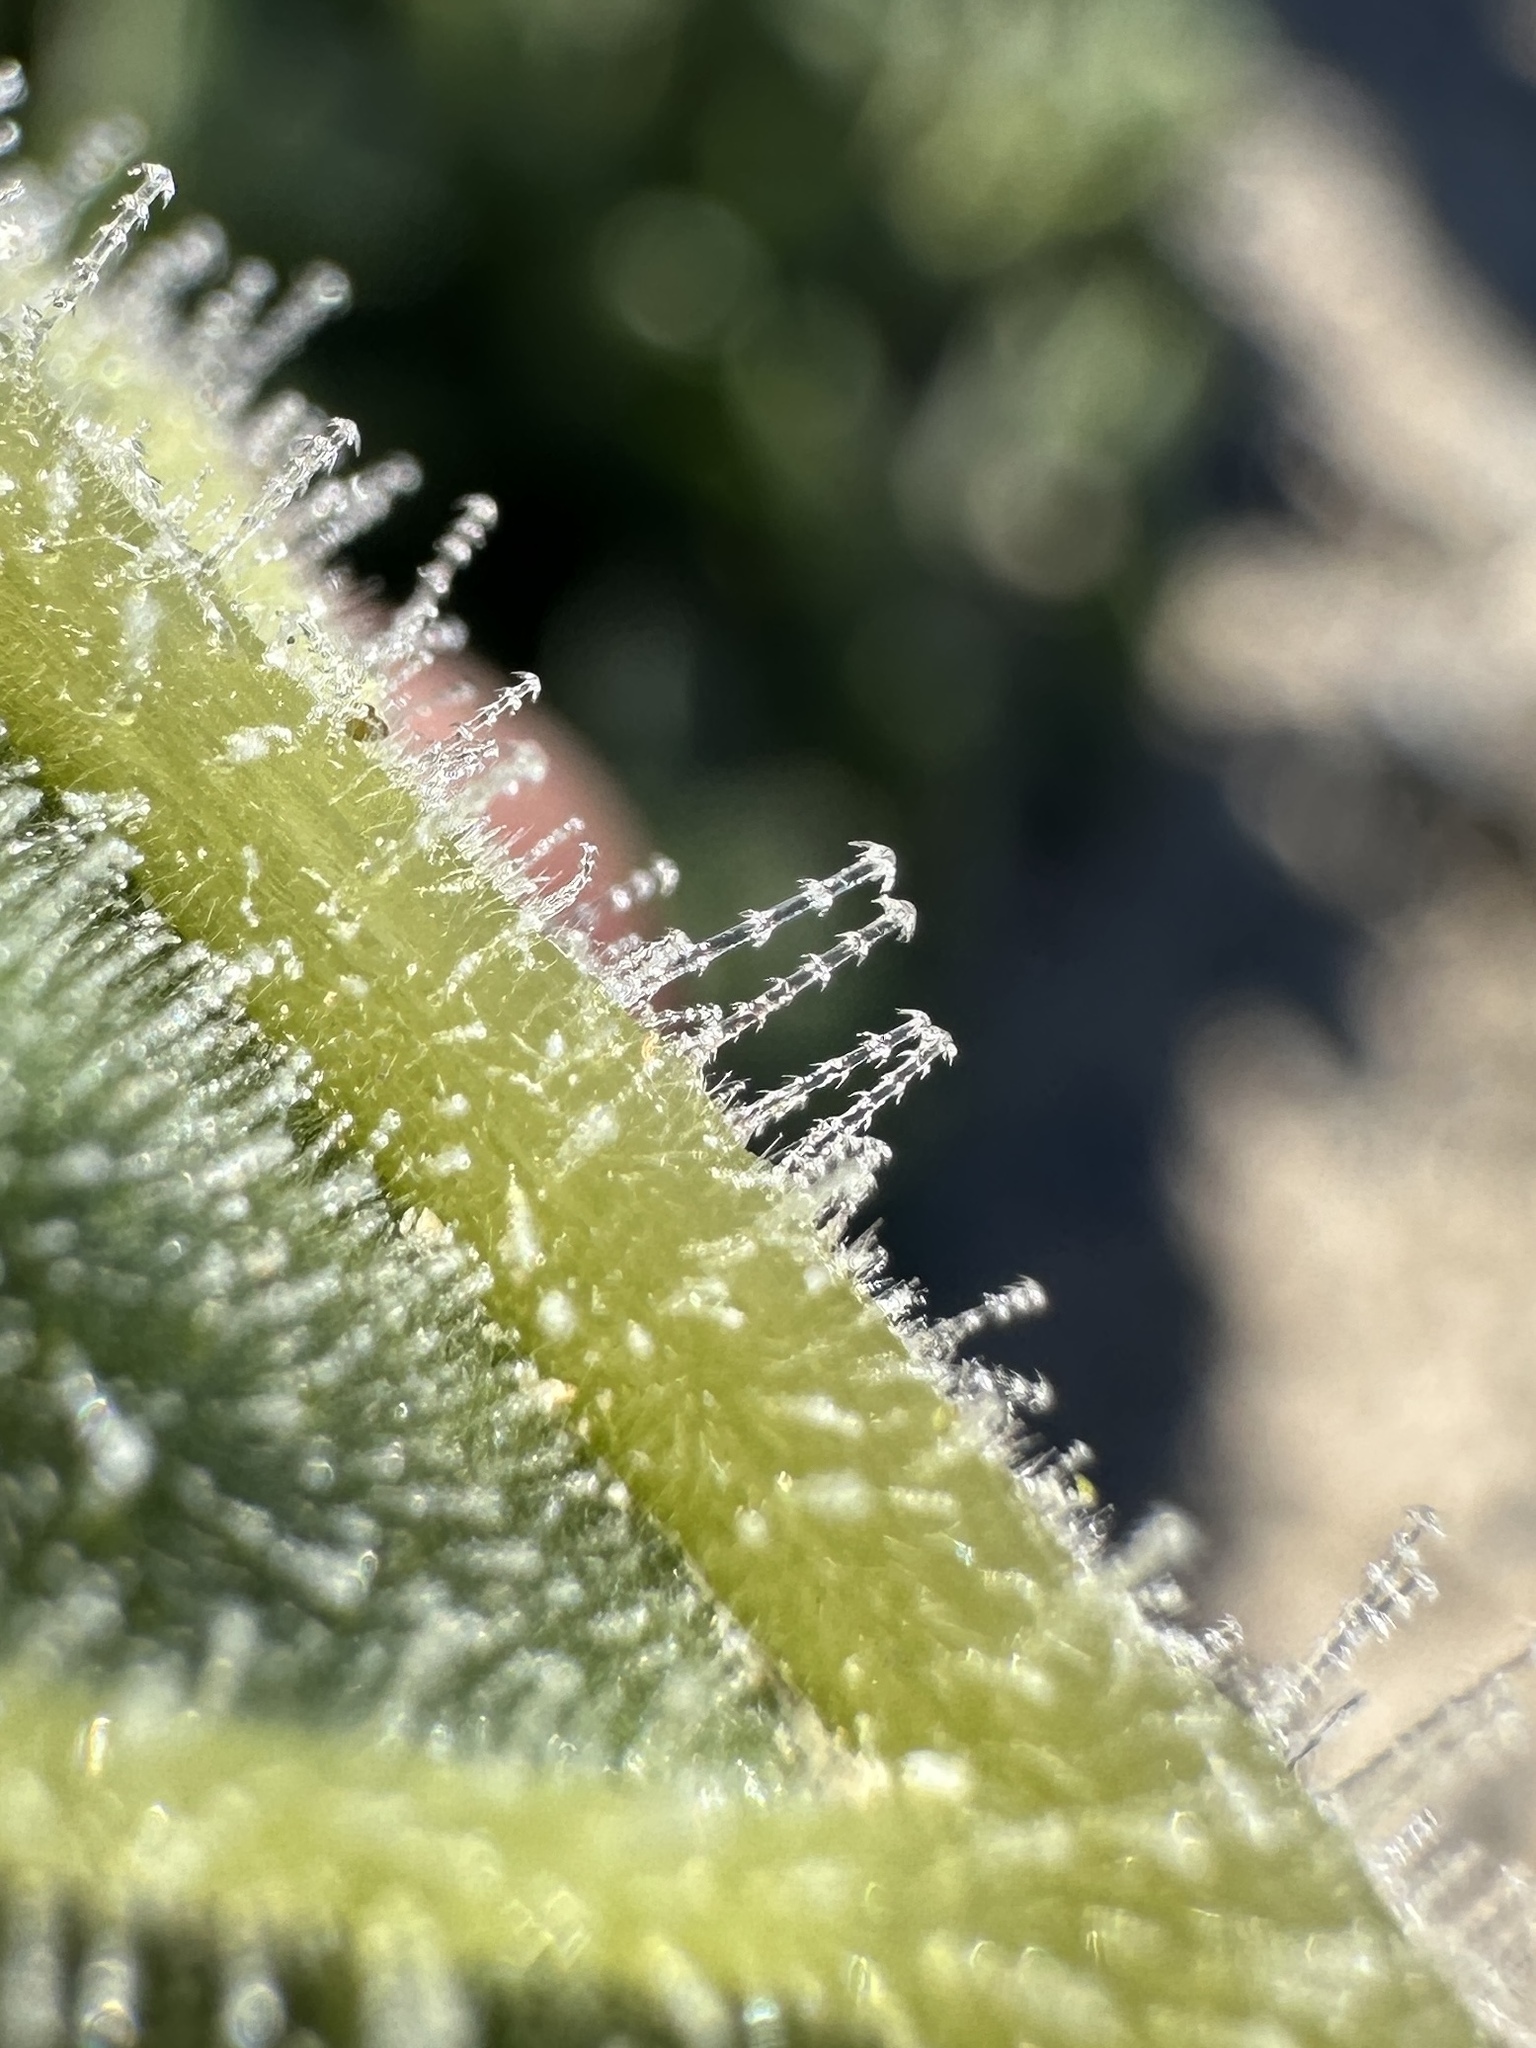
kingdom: Plantae
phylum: Tracheophyta
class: Magnoliopsida
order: Cornales
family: Loasaceae
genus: Eucnide
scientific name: Eucnide urens
